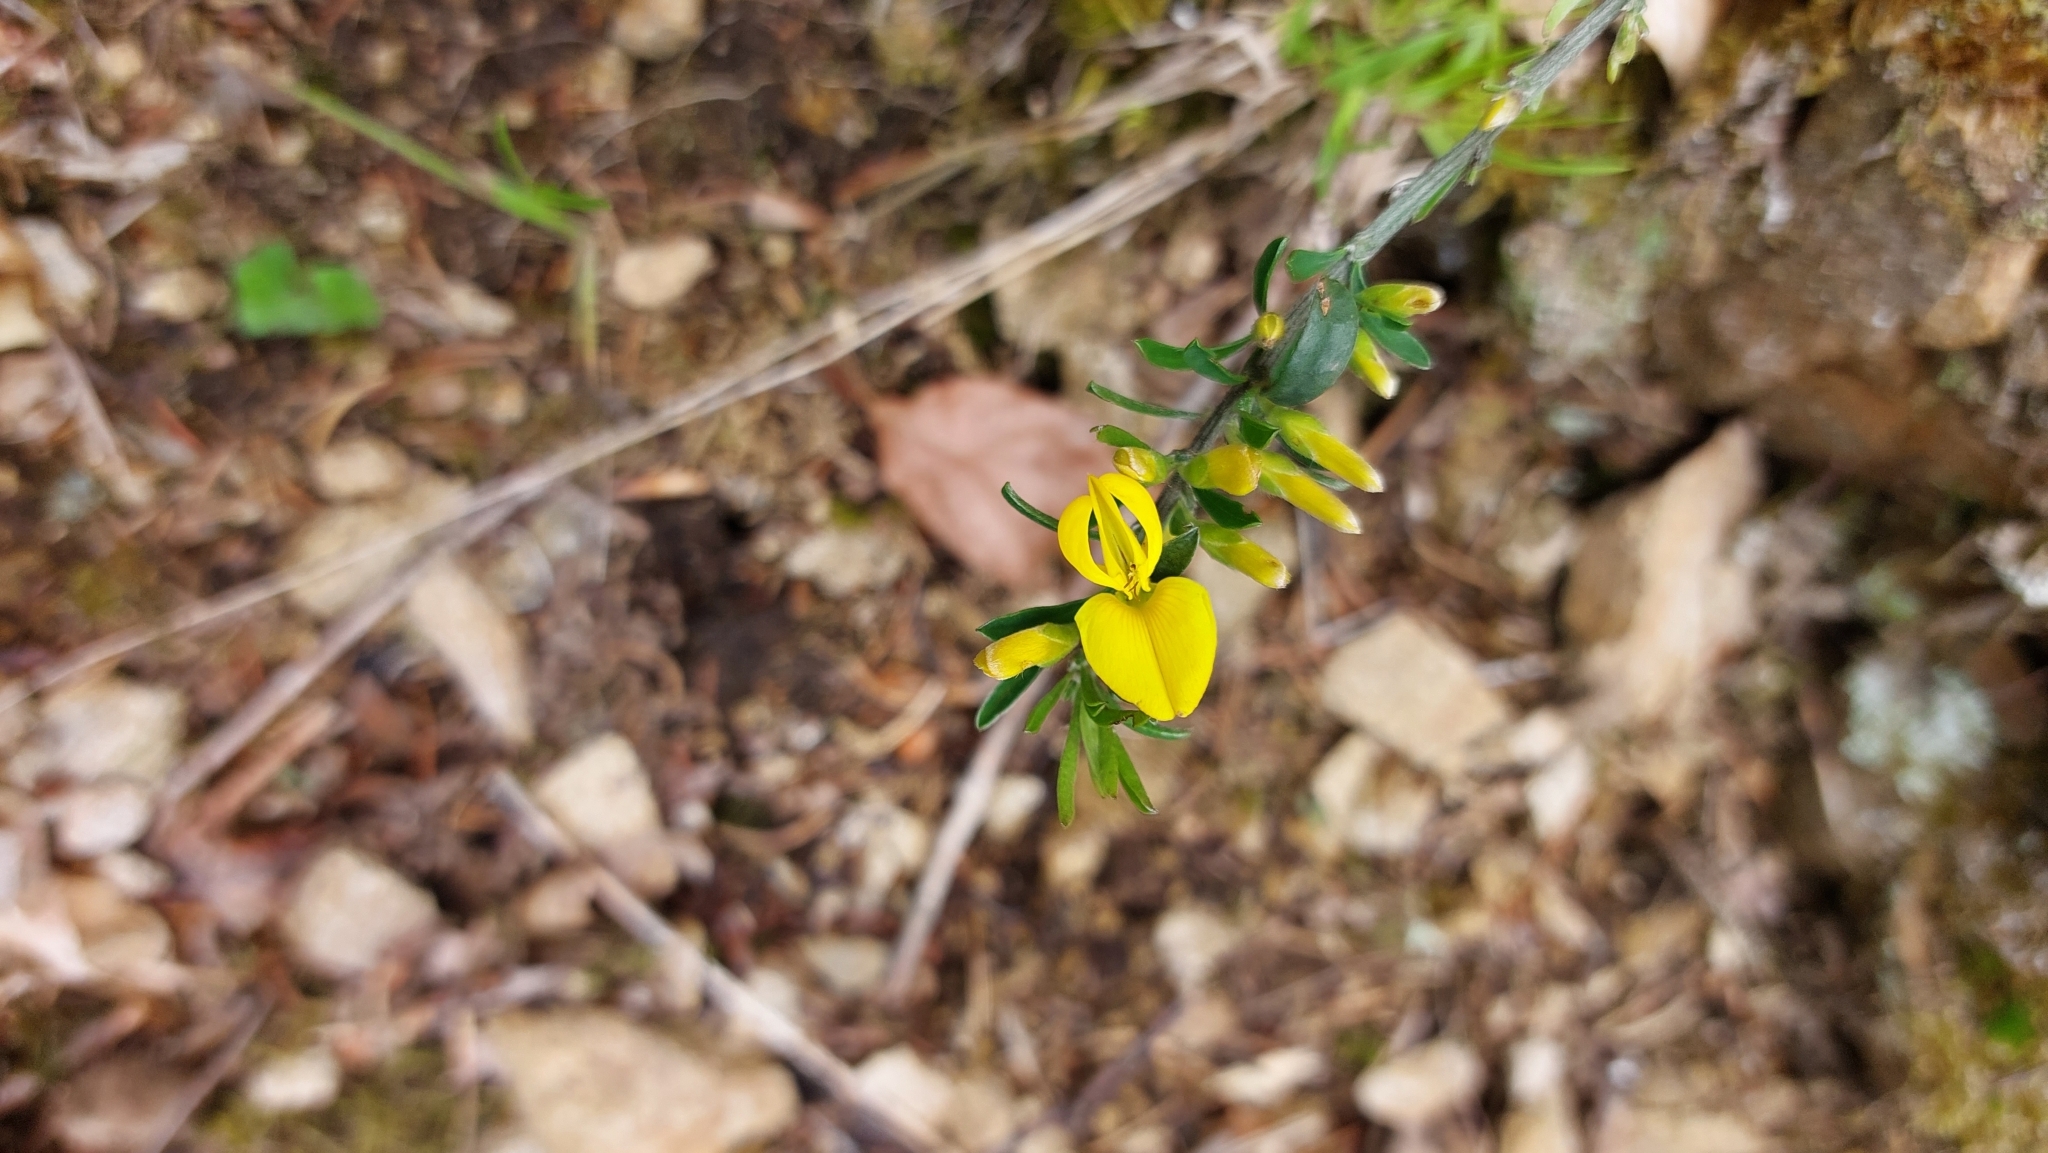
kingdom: Plantae
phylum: Tracheophyta
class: Magnoliopsida
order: Fabales
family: Fabaceae
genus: Genista
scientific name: Genista pilosa
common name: Hairy greenweed
